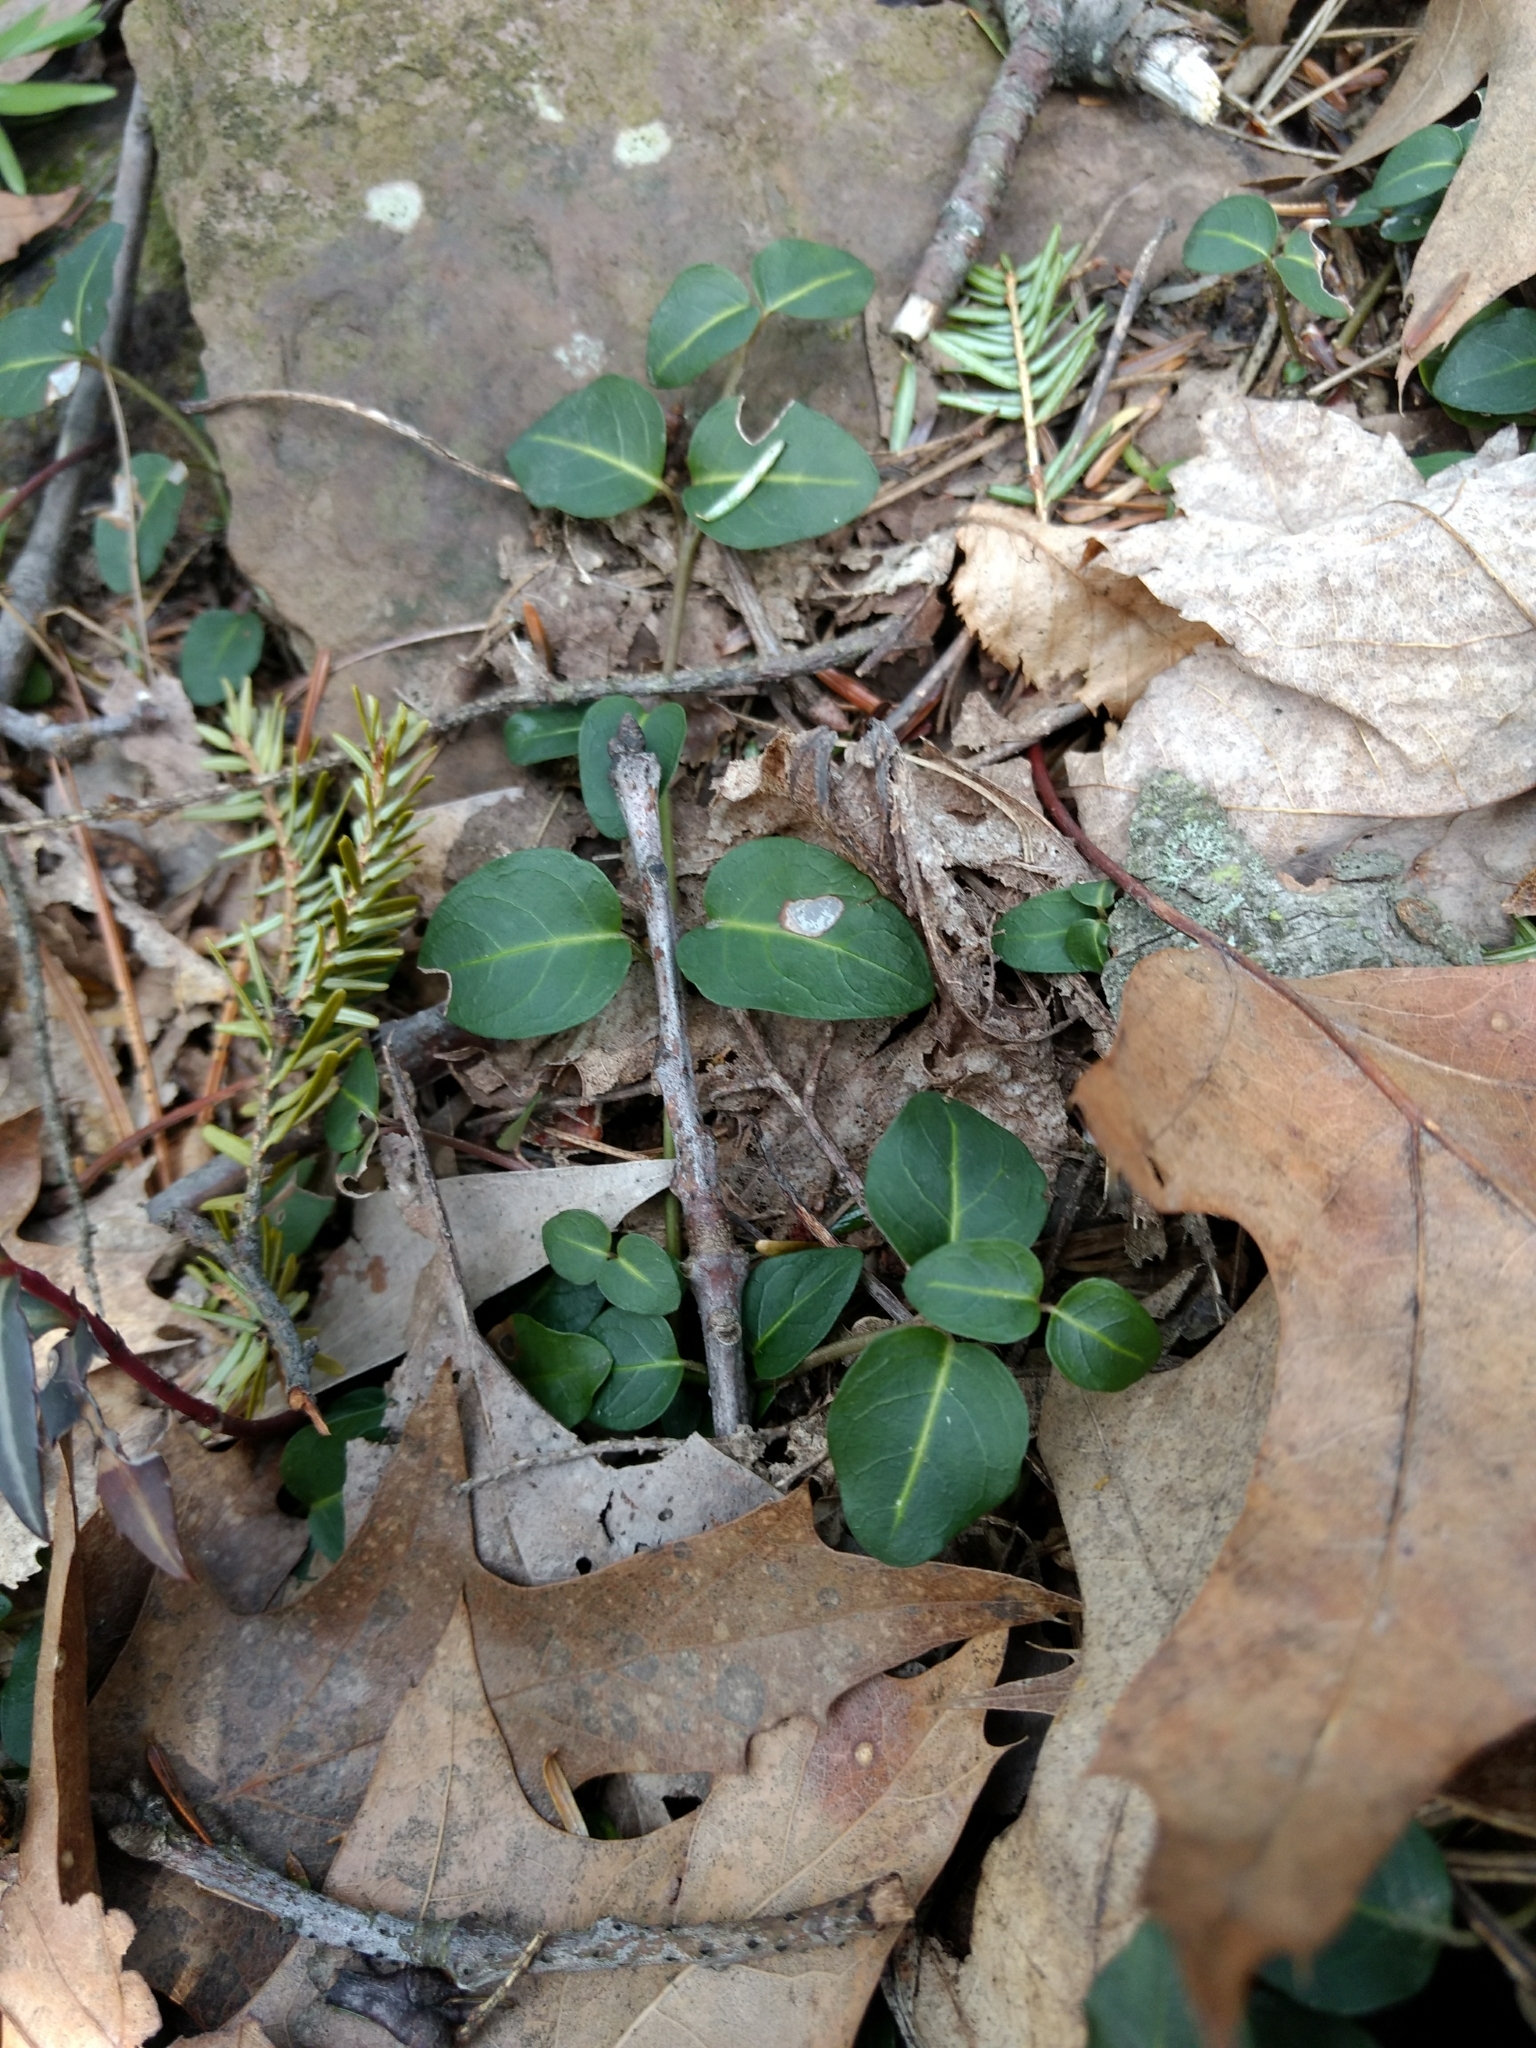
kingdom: Plantae
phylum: Tracheophyta
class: Magnoliopsida
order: Gentianales
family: Rubiaceae
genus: Mitchella
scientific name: Mitchella repens
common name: Partridge-berry
